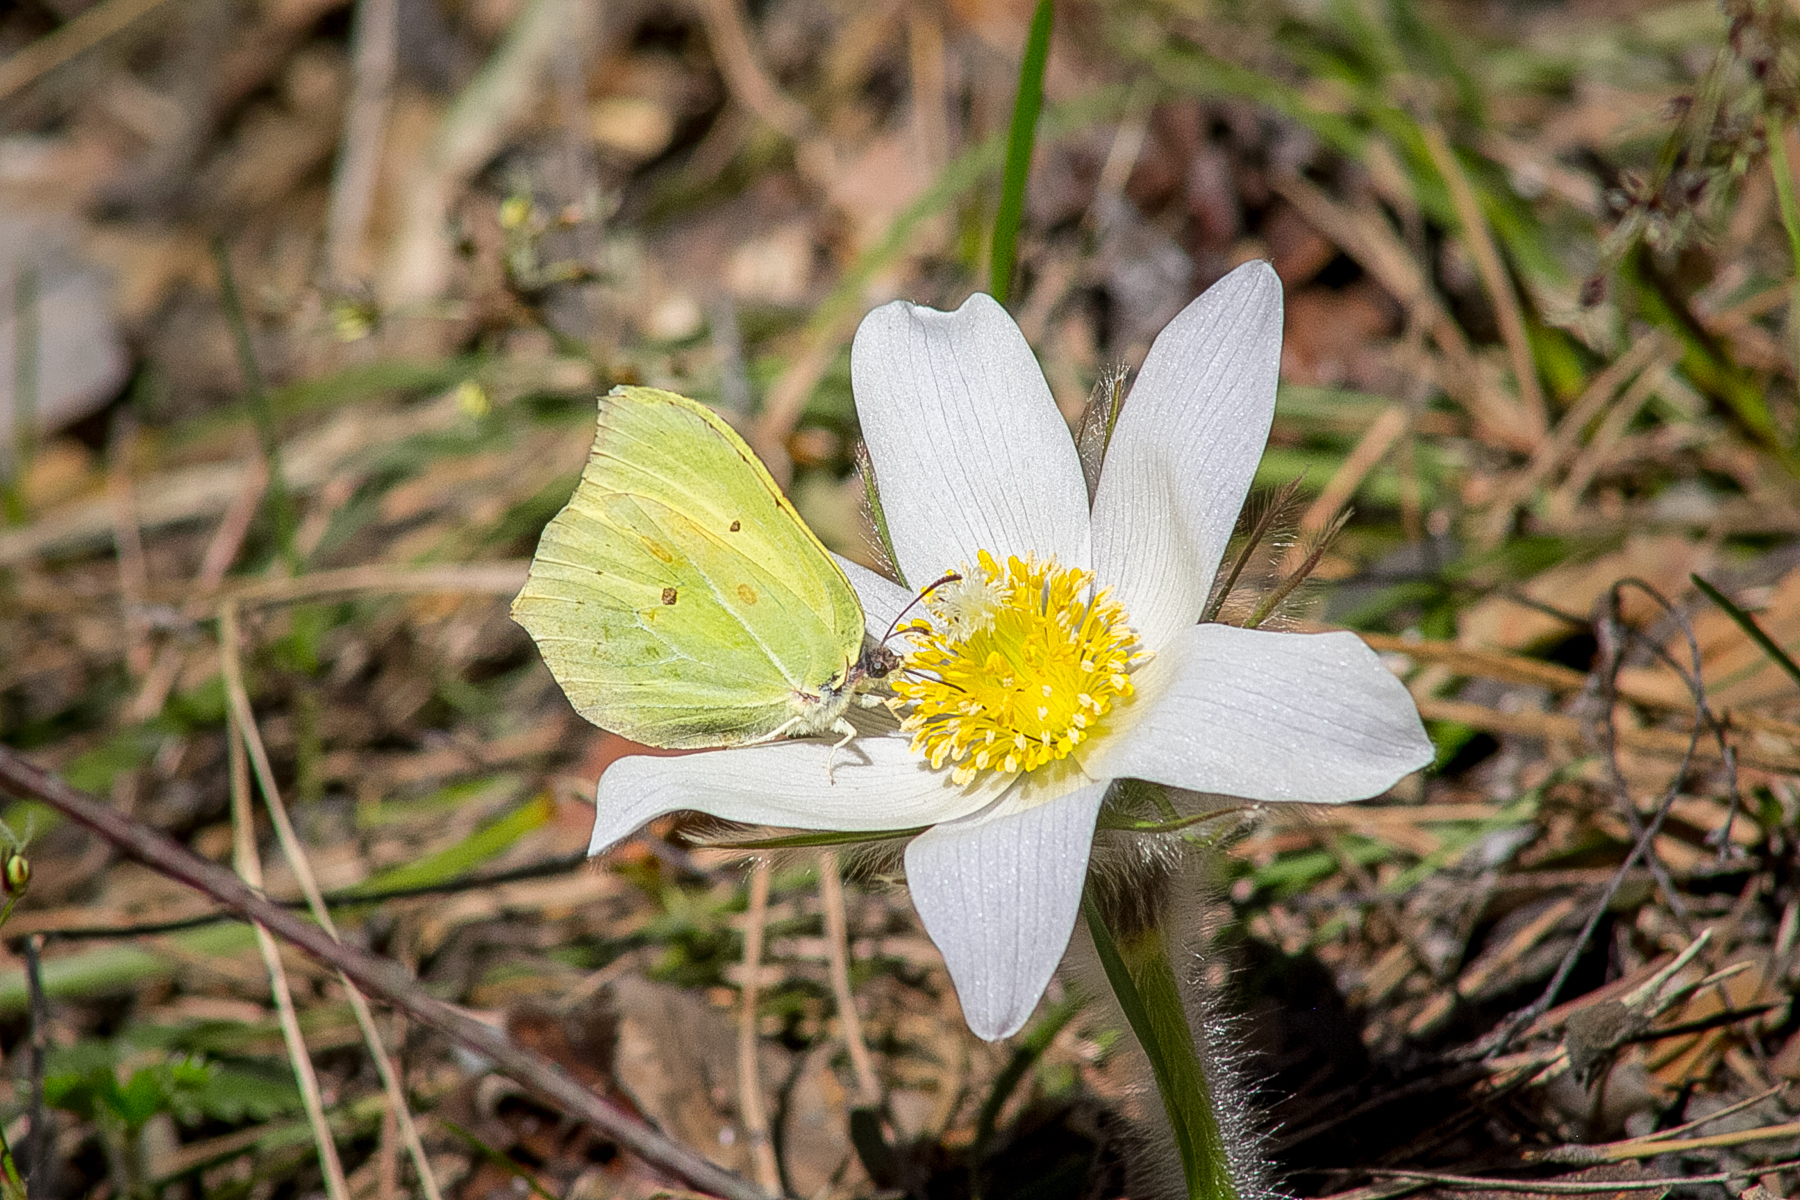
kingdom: Animalia
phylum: Arthropoda
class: Insecta
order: Lepidoptera
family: Pieridae
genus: Gonepteryx
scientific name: Gonepteryx rhamni
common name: Brimstone
